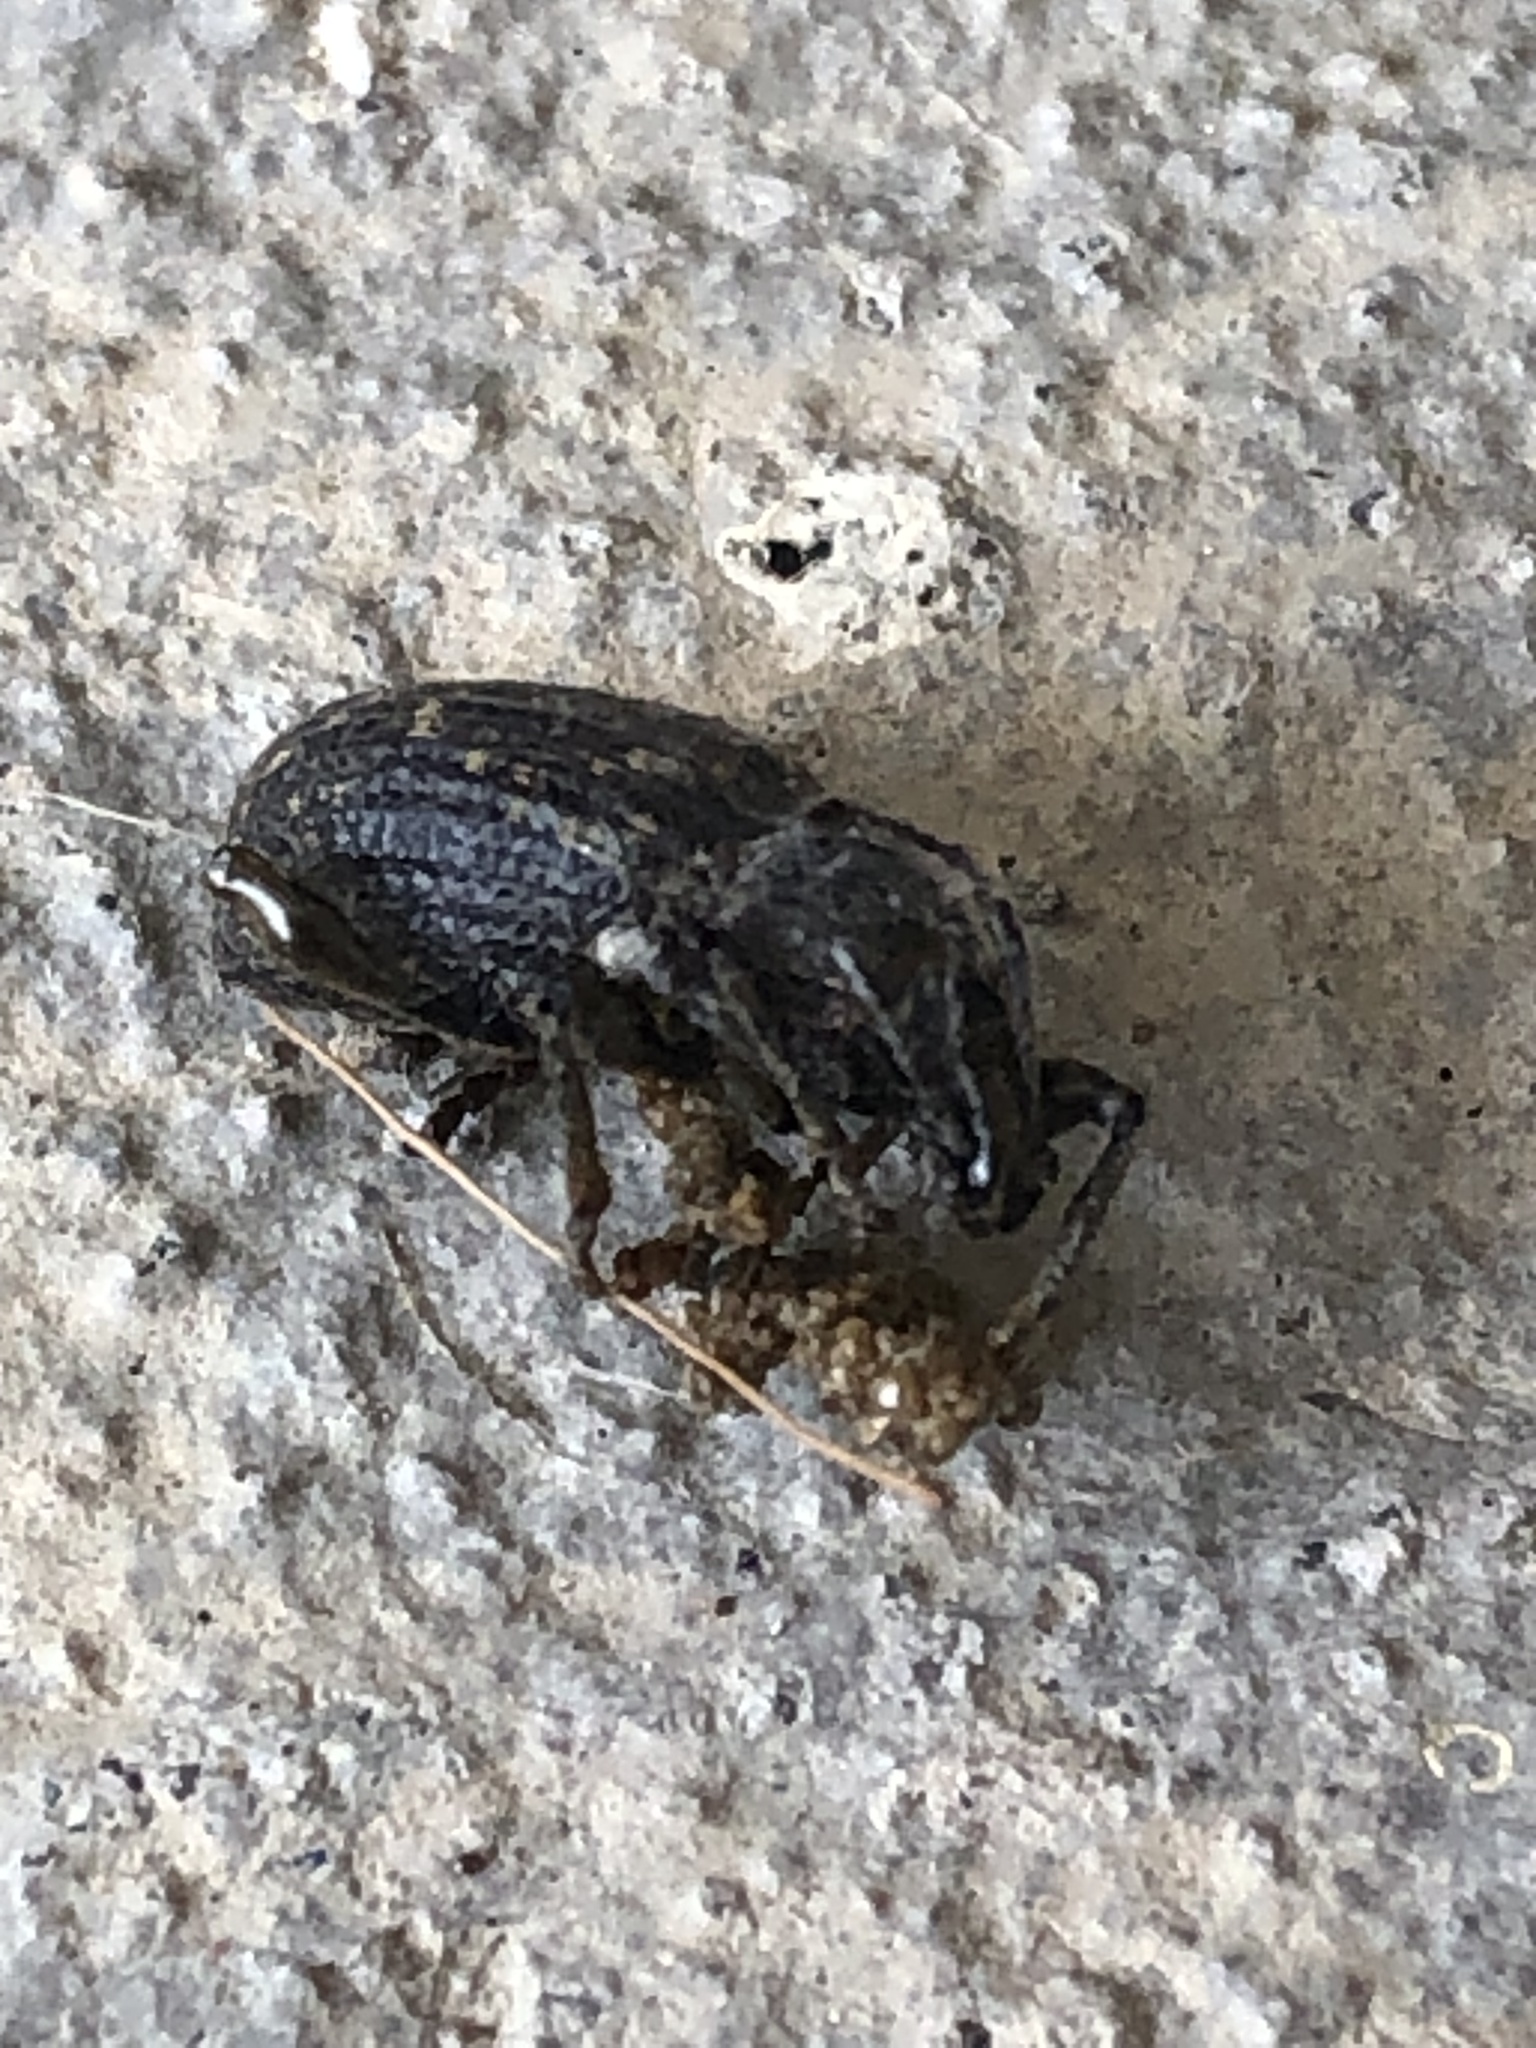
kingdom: Animalia
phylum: Arthropoda
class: Insecta
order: Coleoptera
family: Curculionidae
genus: Otiorhynchus
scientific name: Otiorhynchus sulcatus
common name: Black vine weevil
